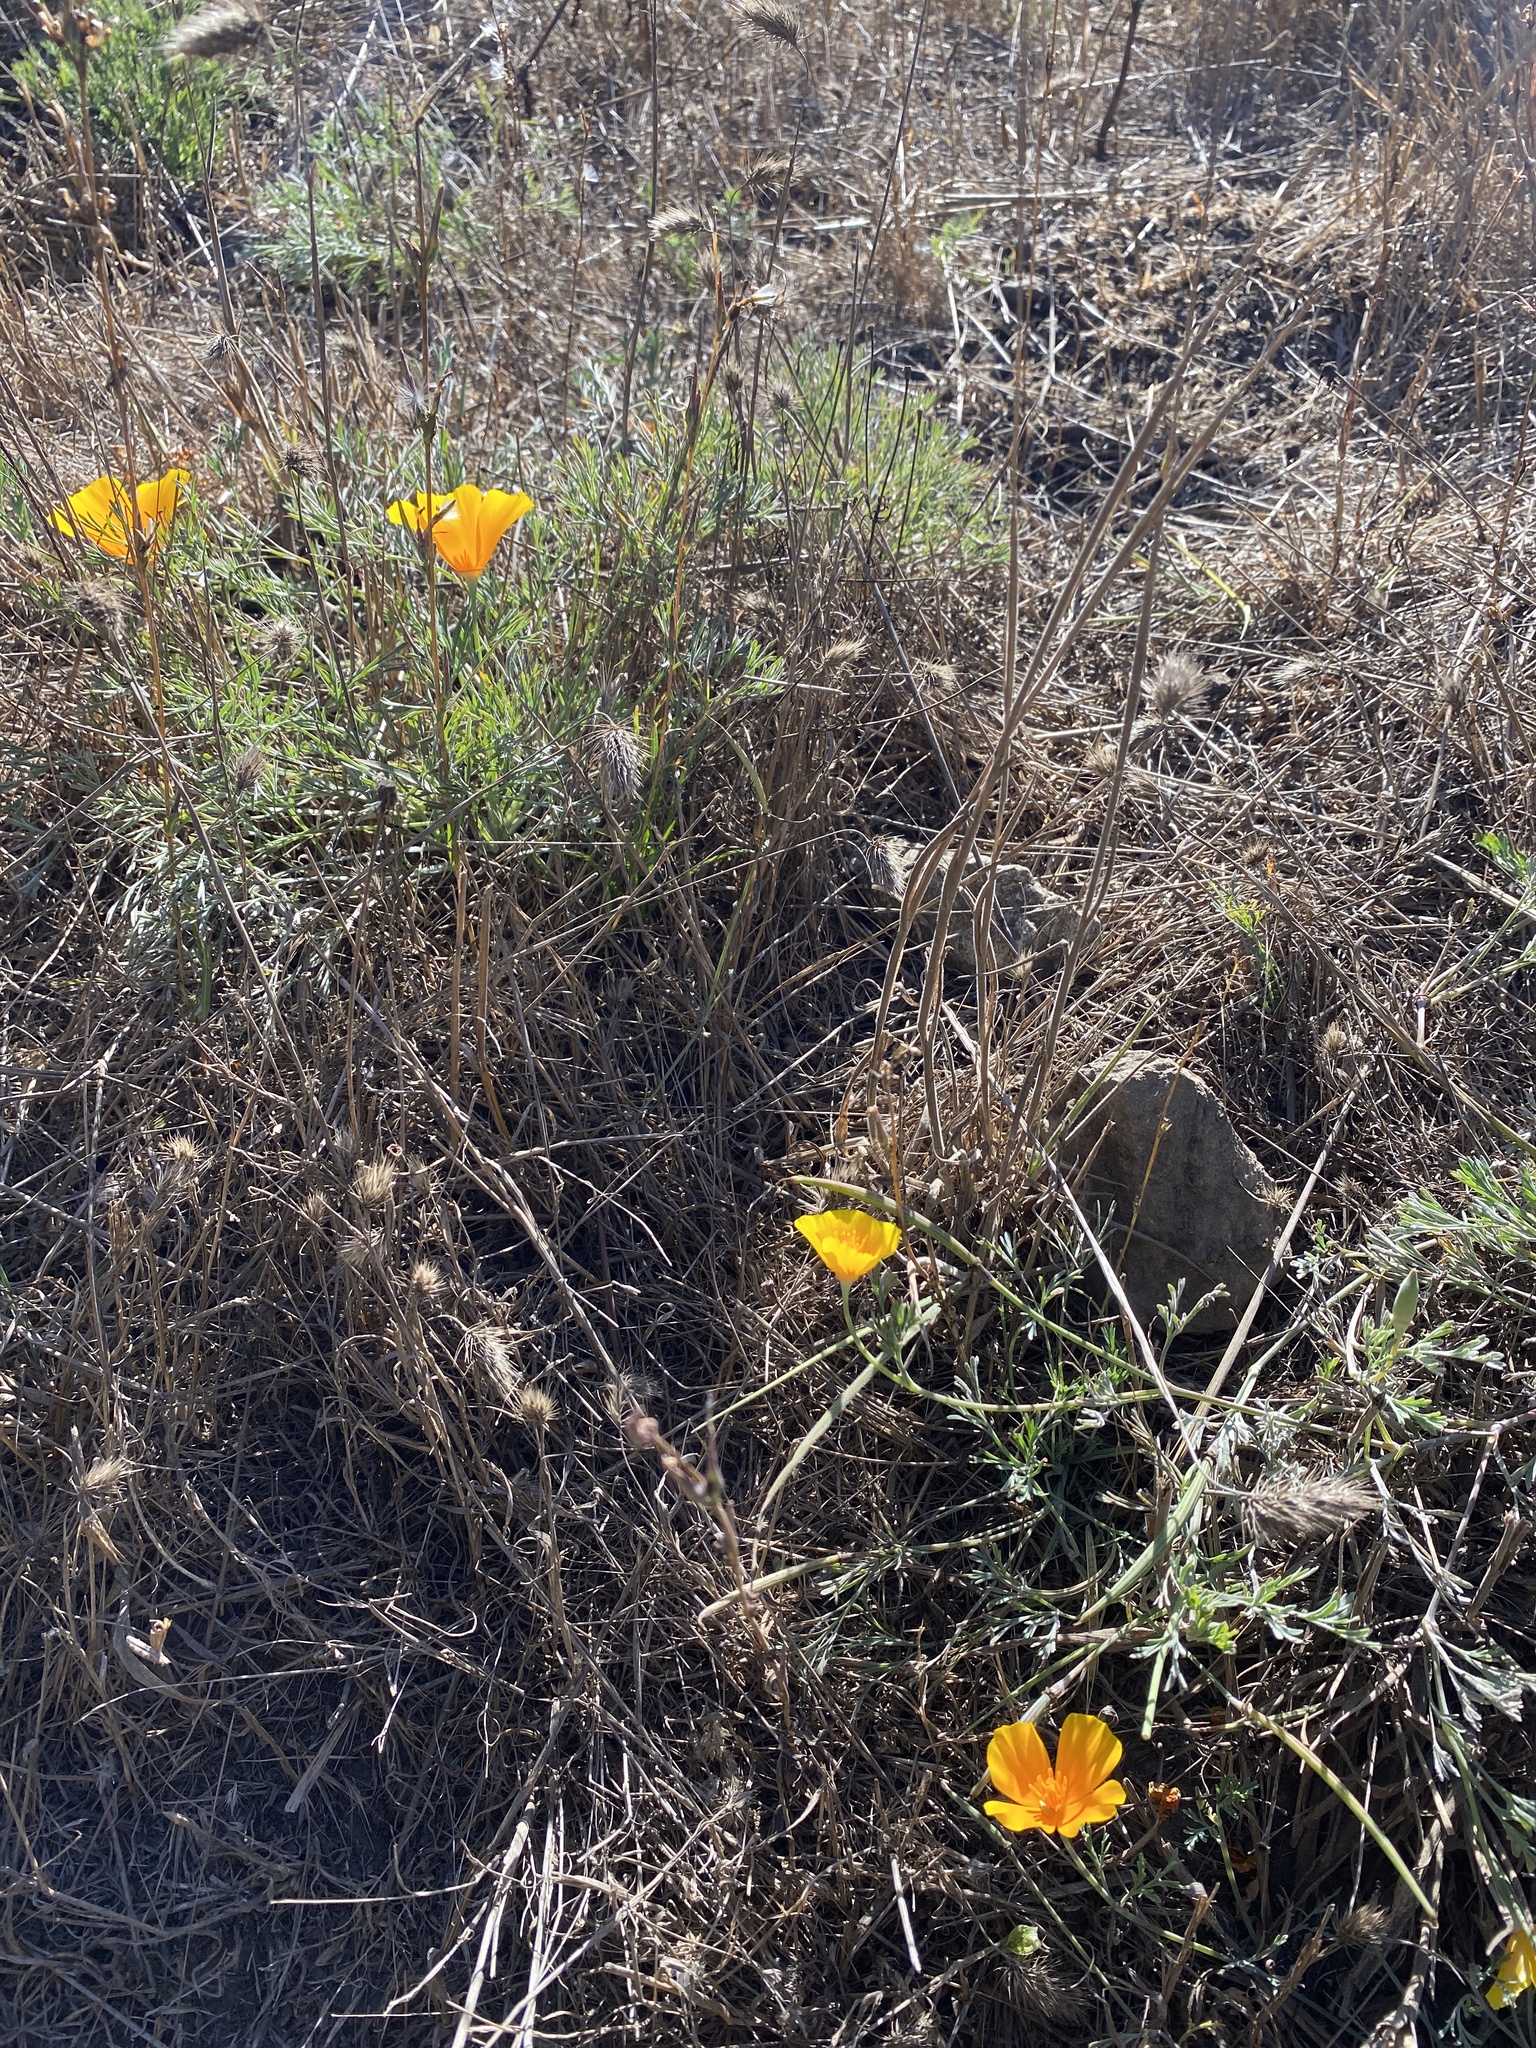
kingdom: Plantae
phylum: Tracheophyta
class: Magnoliopsida
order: Ranunculales
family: Papaveraceae
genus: Eschscholzia
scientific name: Eschscholzia californica
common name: California poppy
